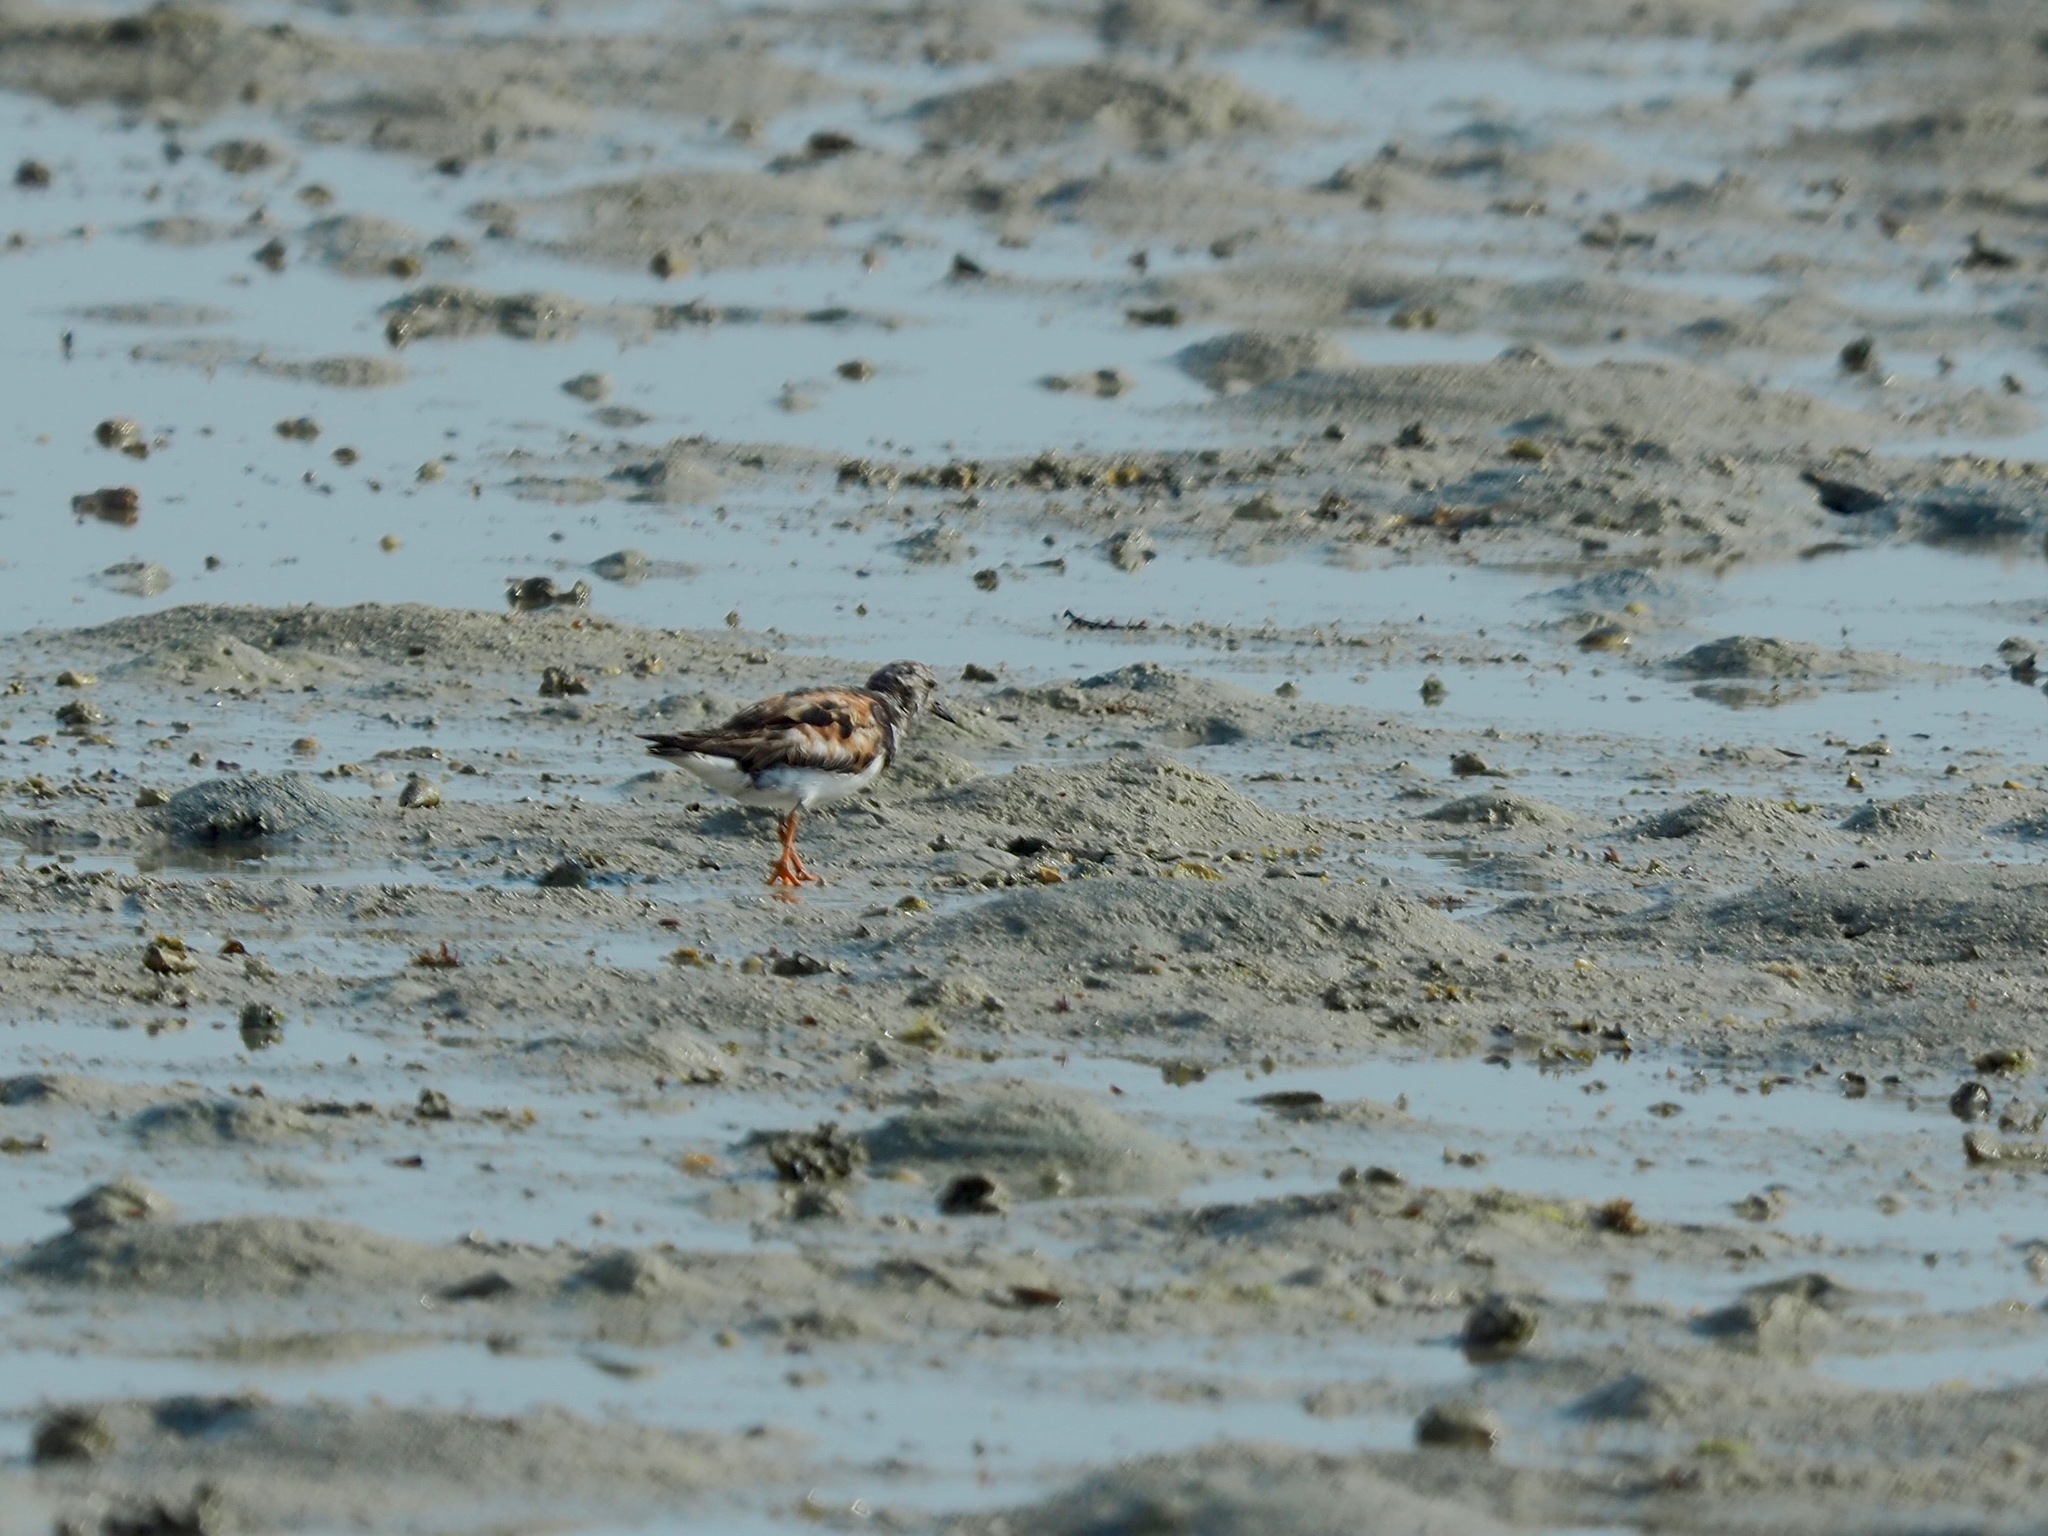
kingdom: Animalia
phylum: Chordata
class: Aves
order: Charadriiformes
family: Scolopacidae
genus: Arenaria
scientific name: Arenaria interpres
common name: Ruddy turnstone
